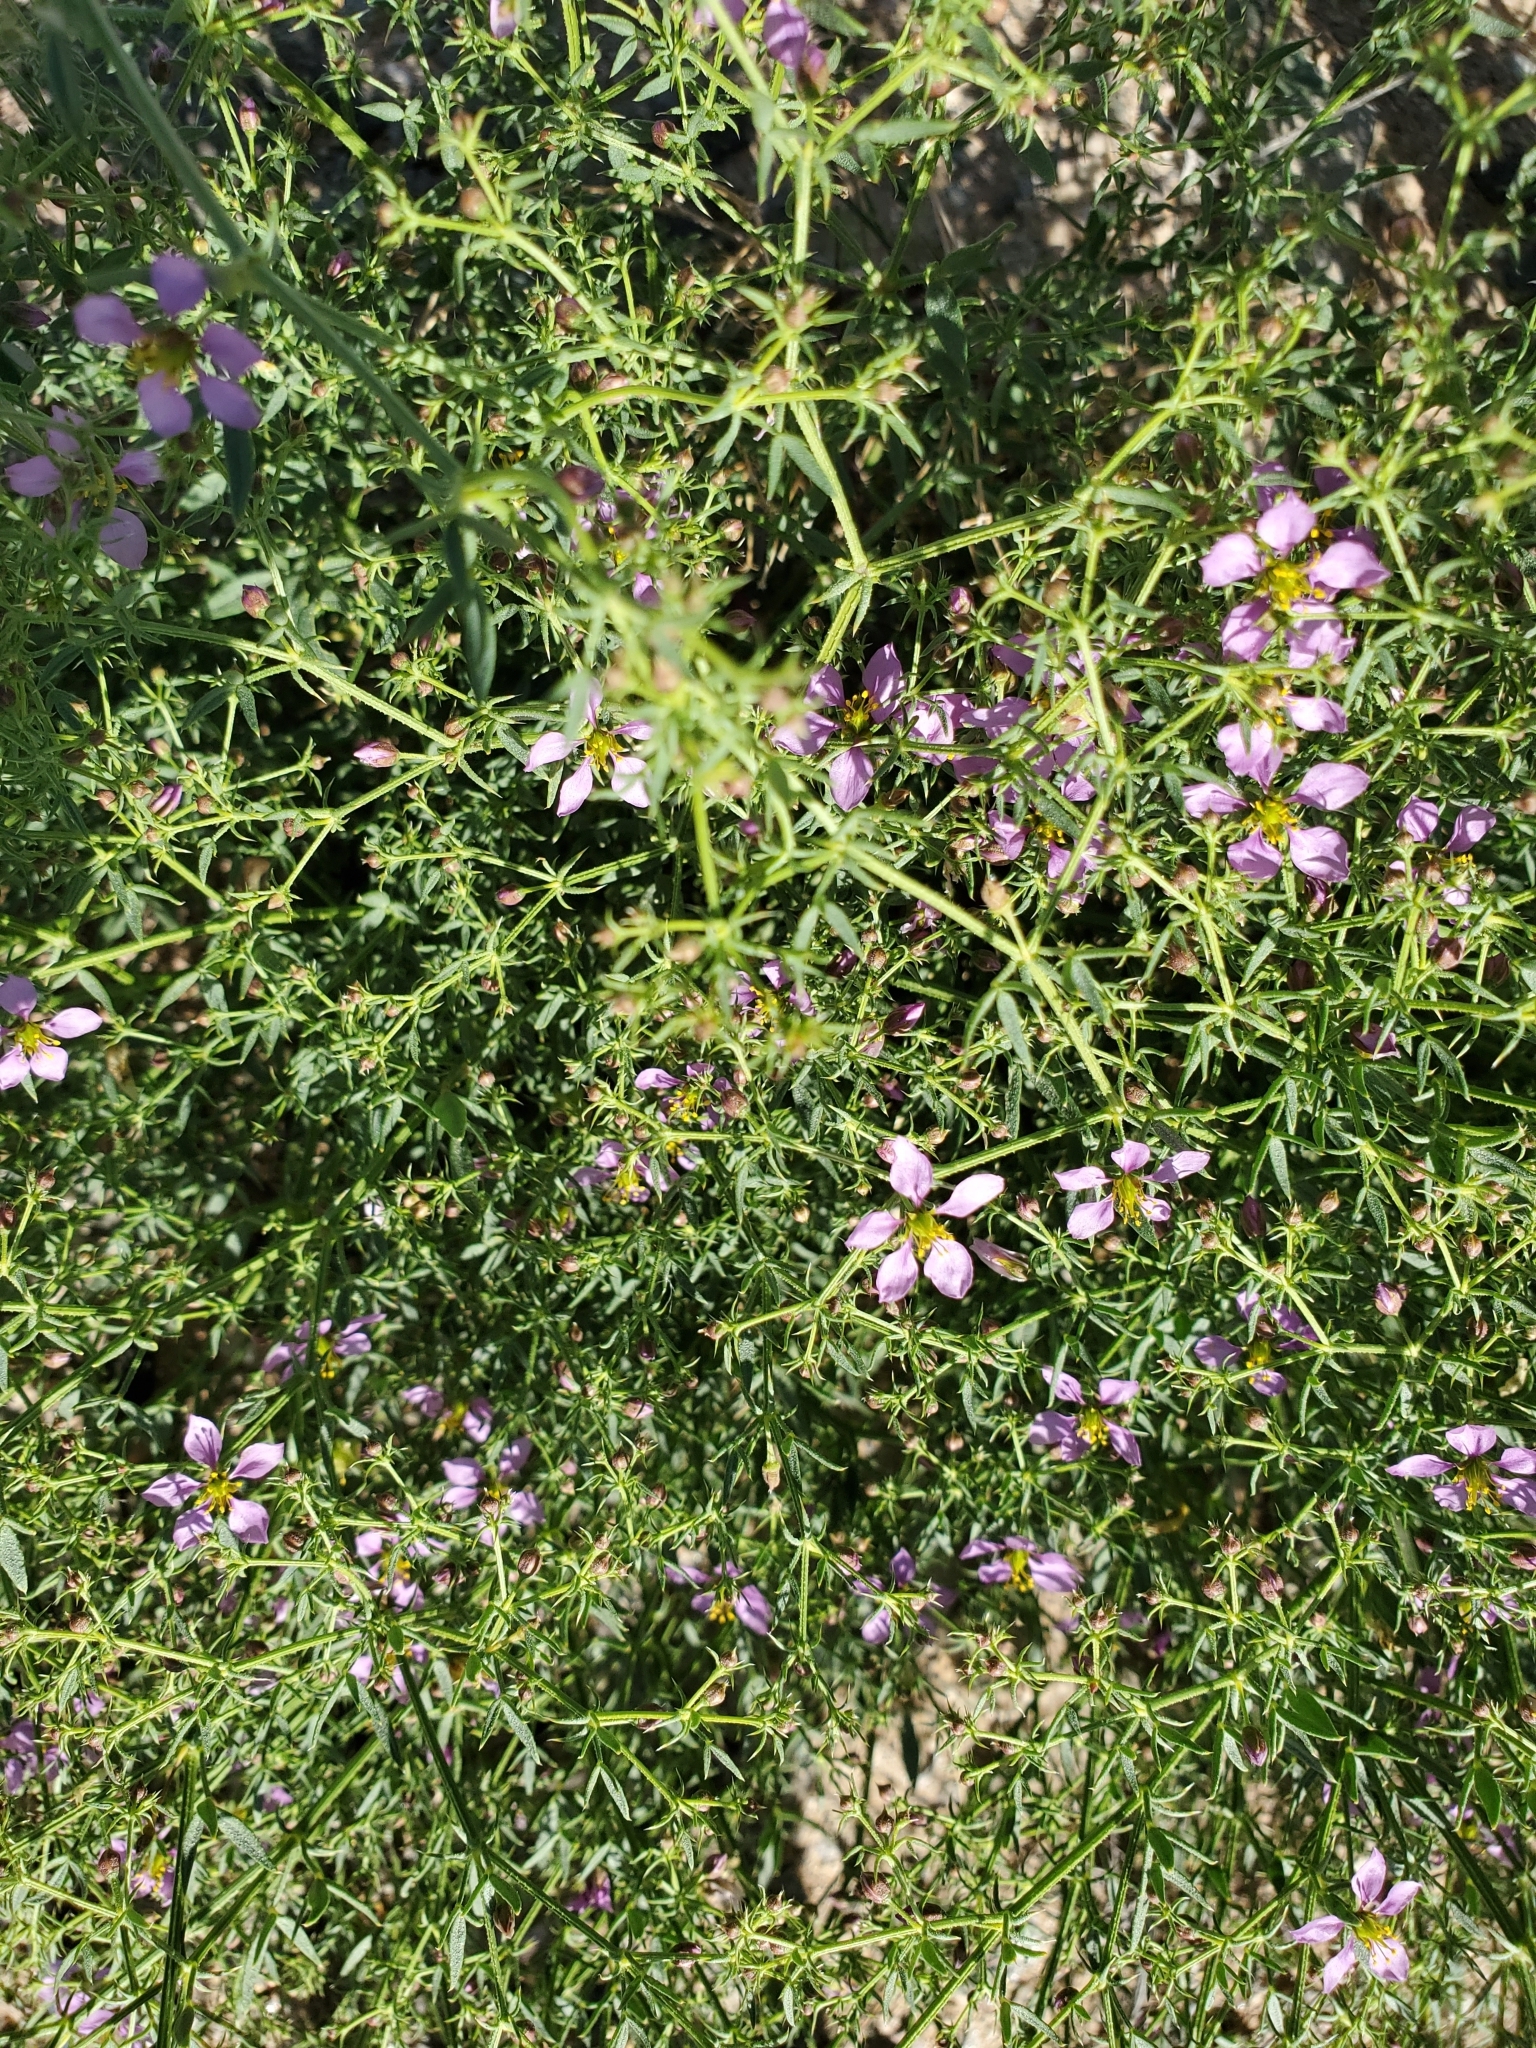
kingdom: Plantae
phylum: Tracheophyta
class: Magnoliopsida
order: Zygophyllales
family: Zygophyllaceae
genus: Fagonia
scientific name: Fagonia laevis
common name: California fagonbush
